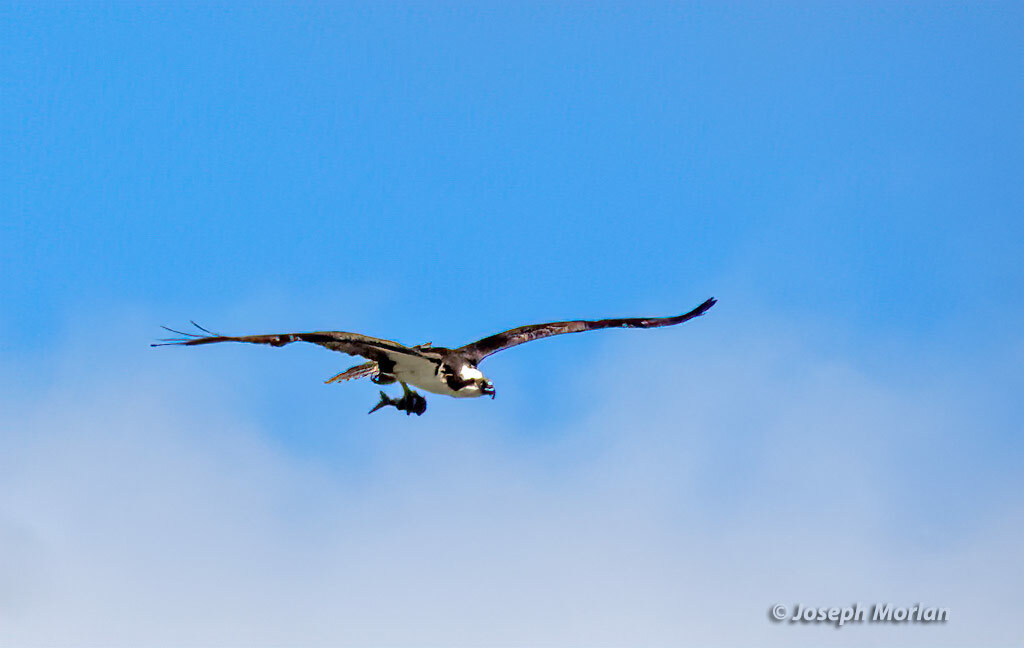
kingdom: Animalia
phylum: Chordata
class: Aves
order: Accipitriformes
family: Pandionidae
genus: Pandion
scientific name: Pandion haliaetus
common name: Osprey
